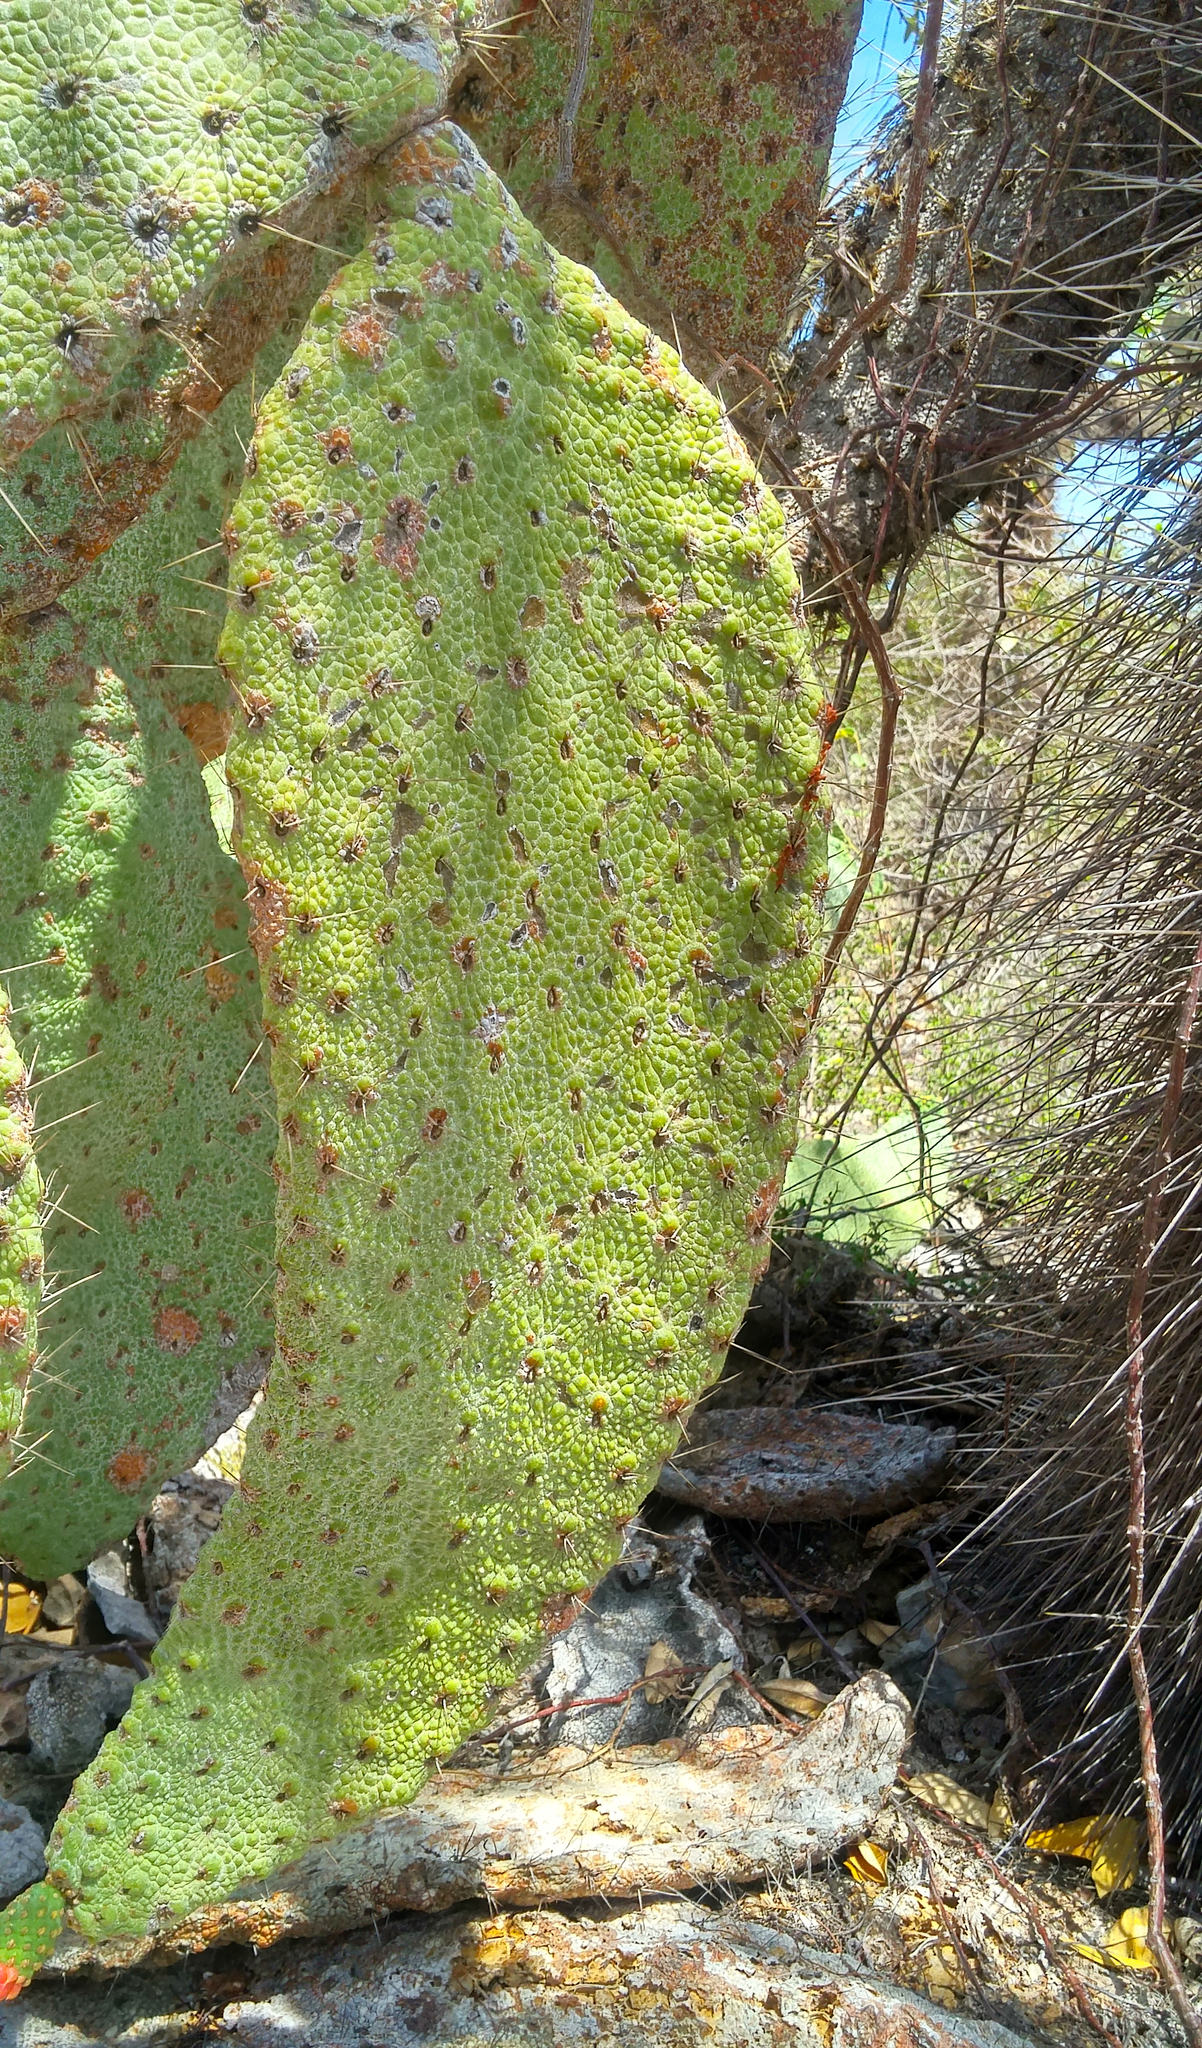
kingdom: Plantae
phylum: Tracheophyta
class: Magnoliopsida
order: Caryophyllales
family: Cactaceae
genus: Consolea
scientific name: Consolea moniliformis
